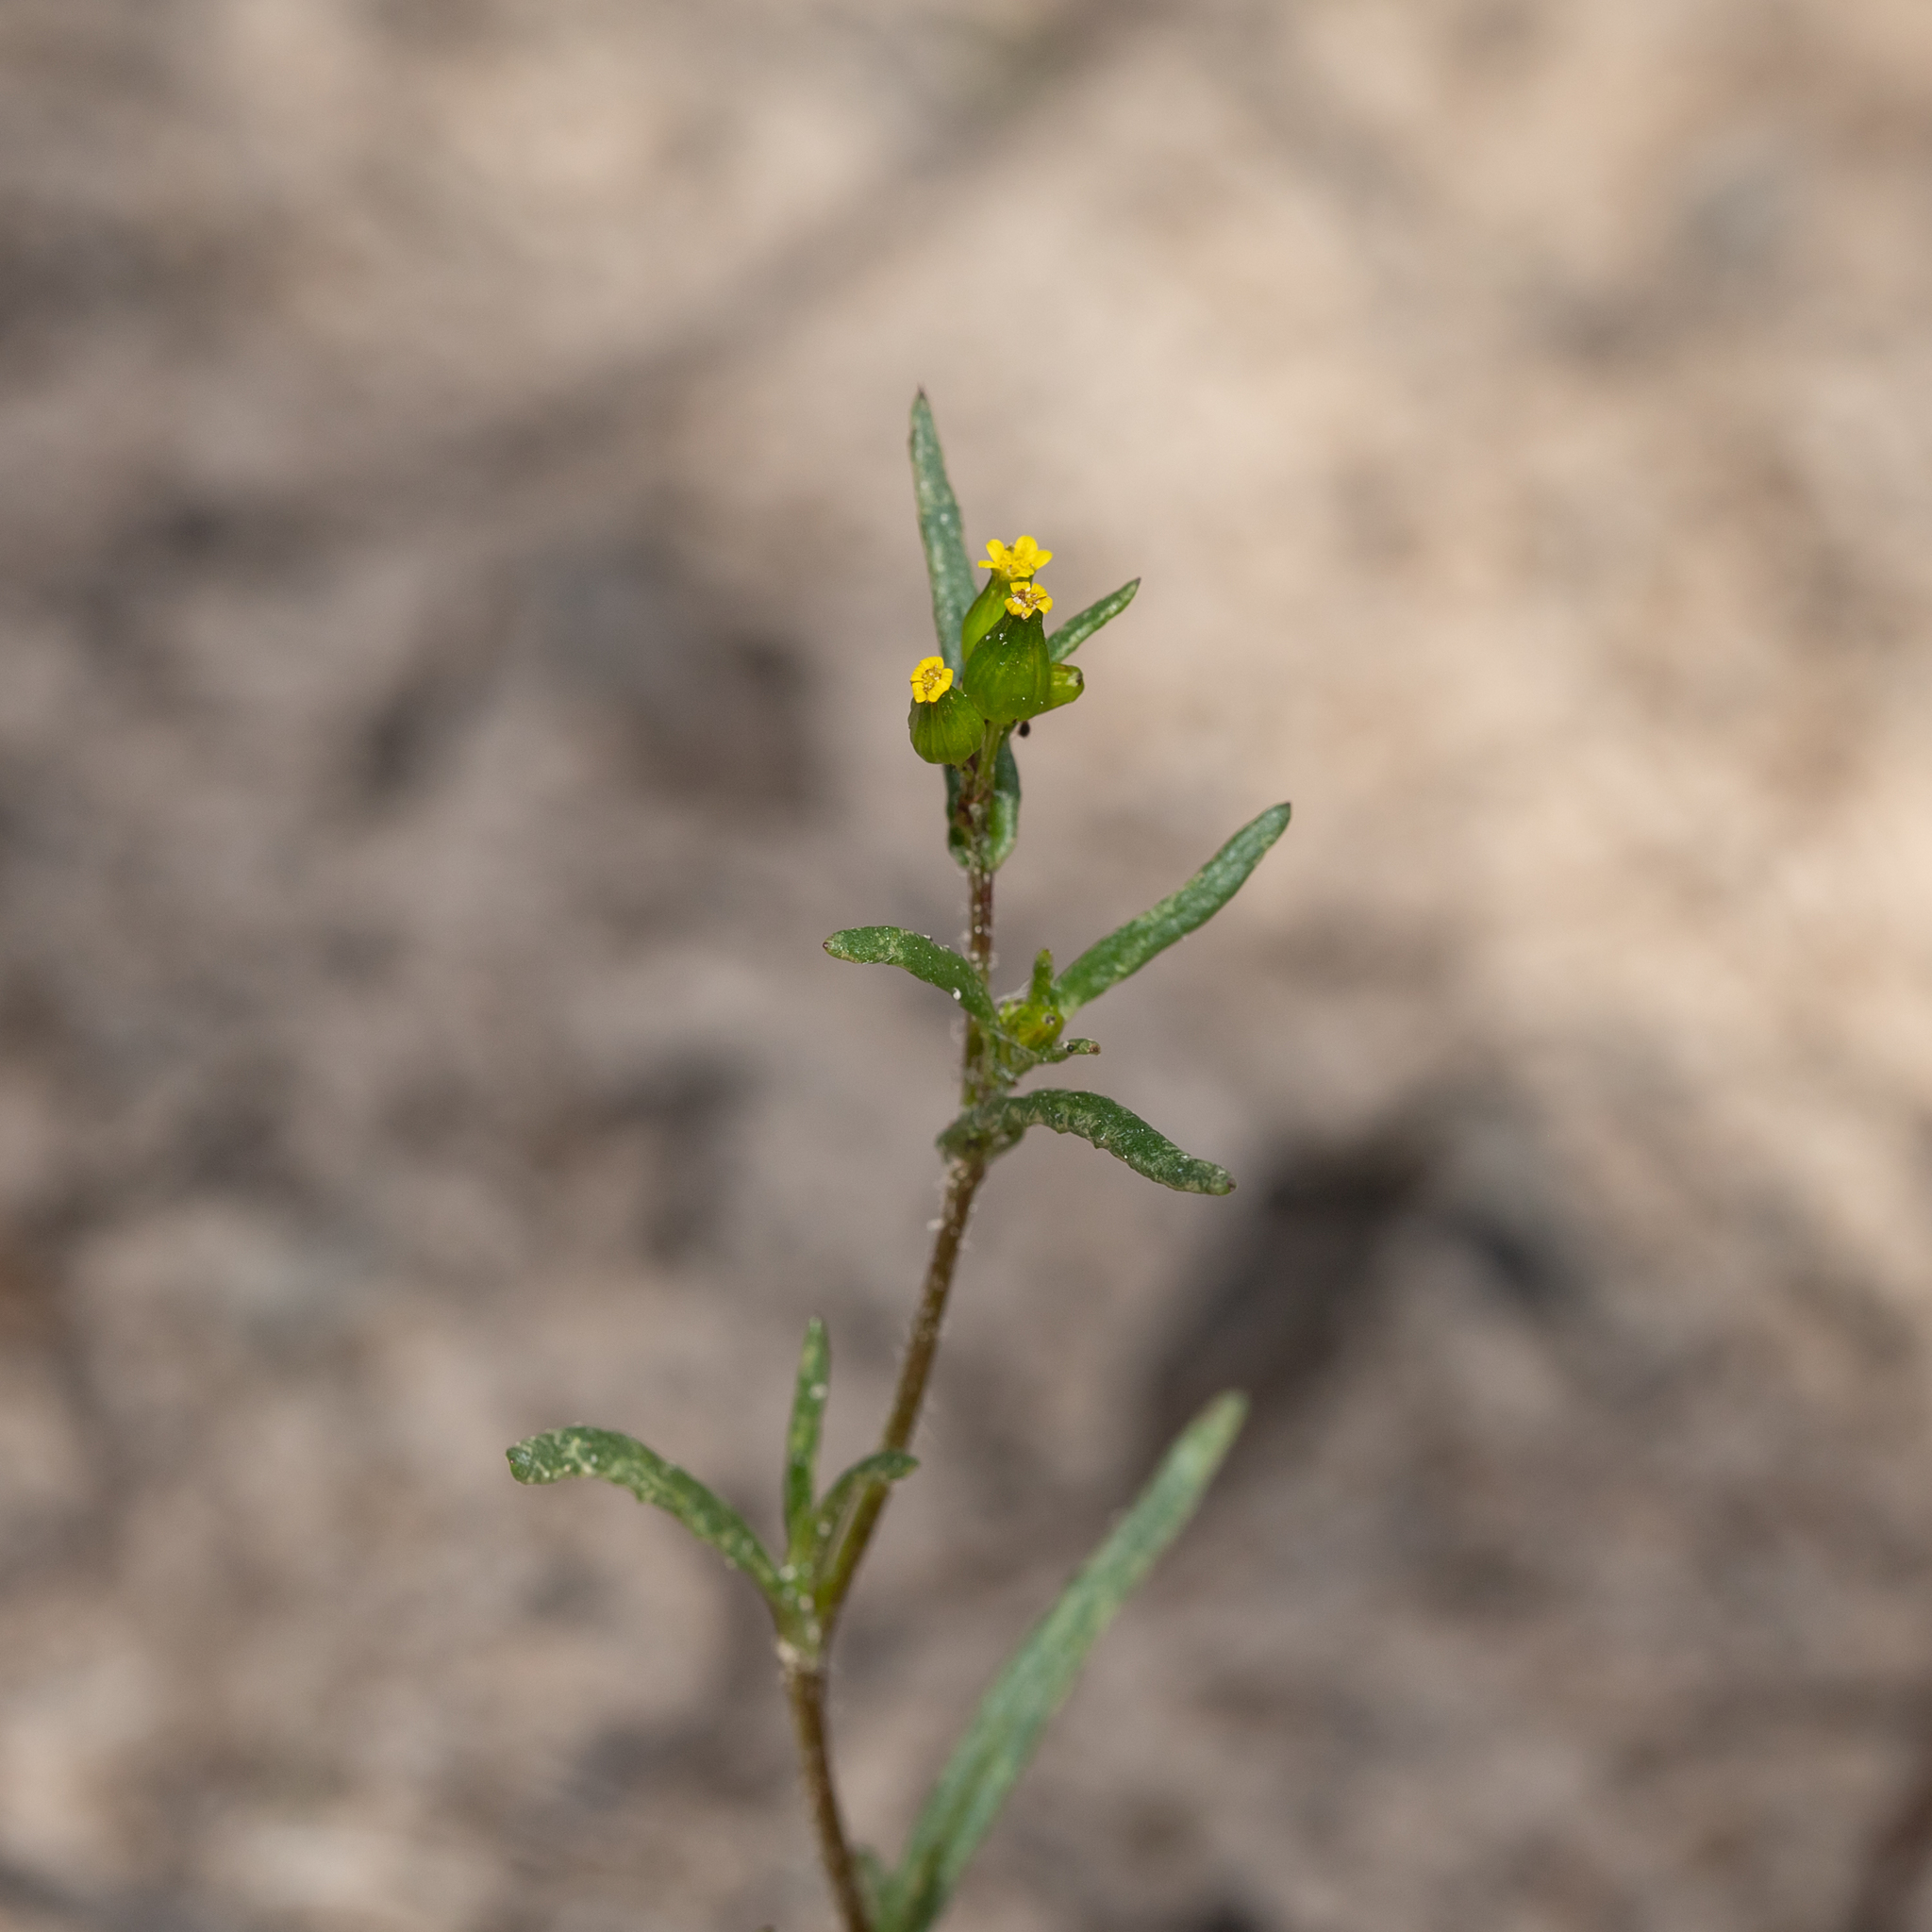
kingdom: Plantae
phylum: Tracheophyta
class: Magnoliopsida
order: Asterales
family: Asteraceae
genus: Senecio
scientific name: Senecio glossanthus
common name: Slender groundsel
